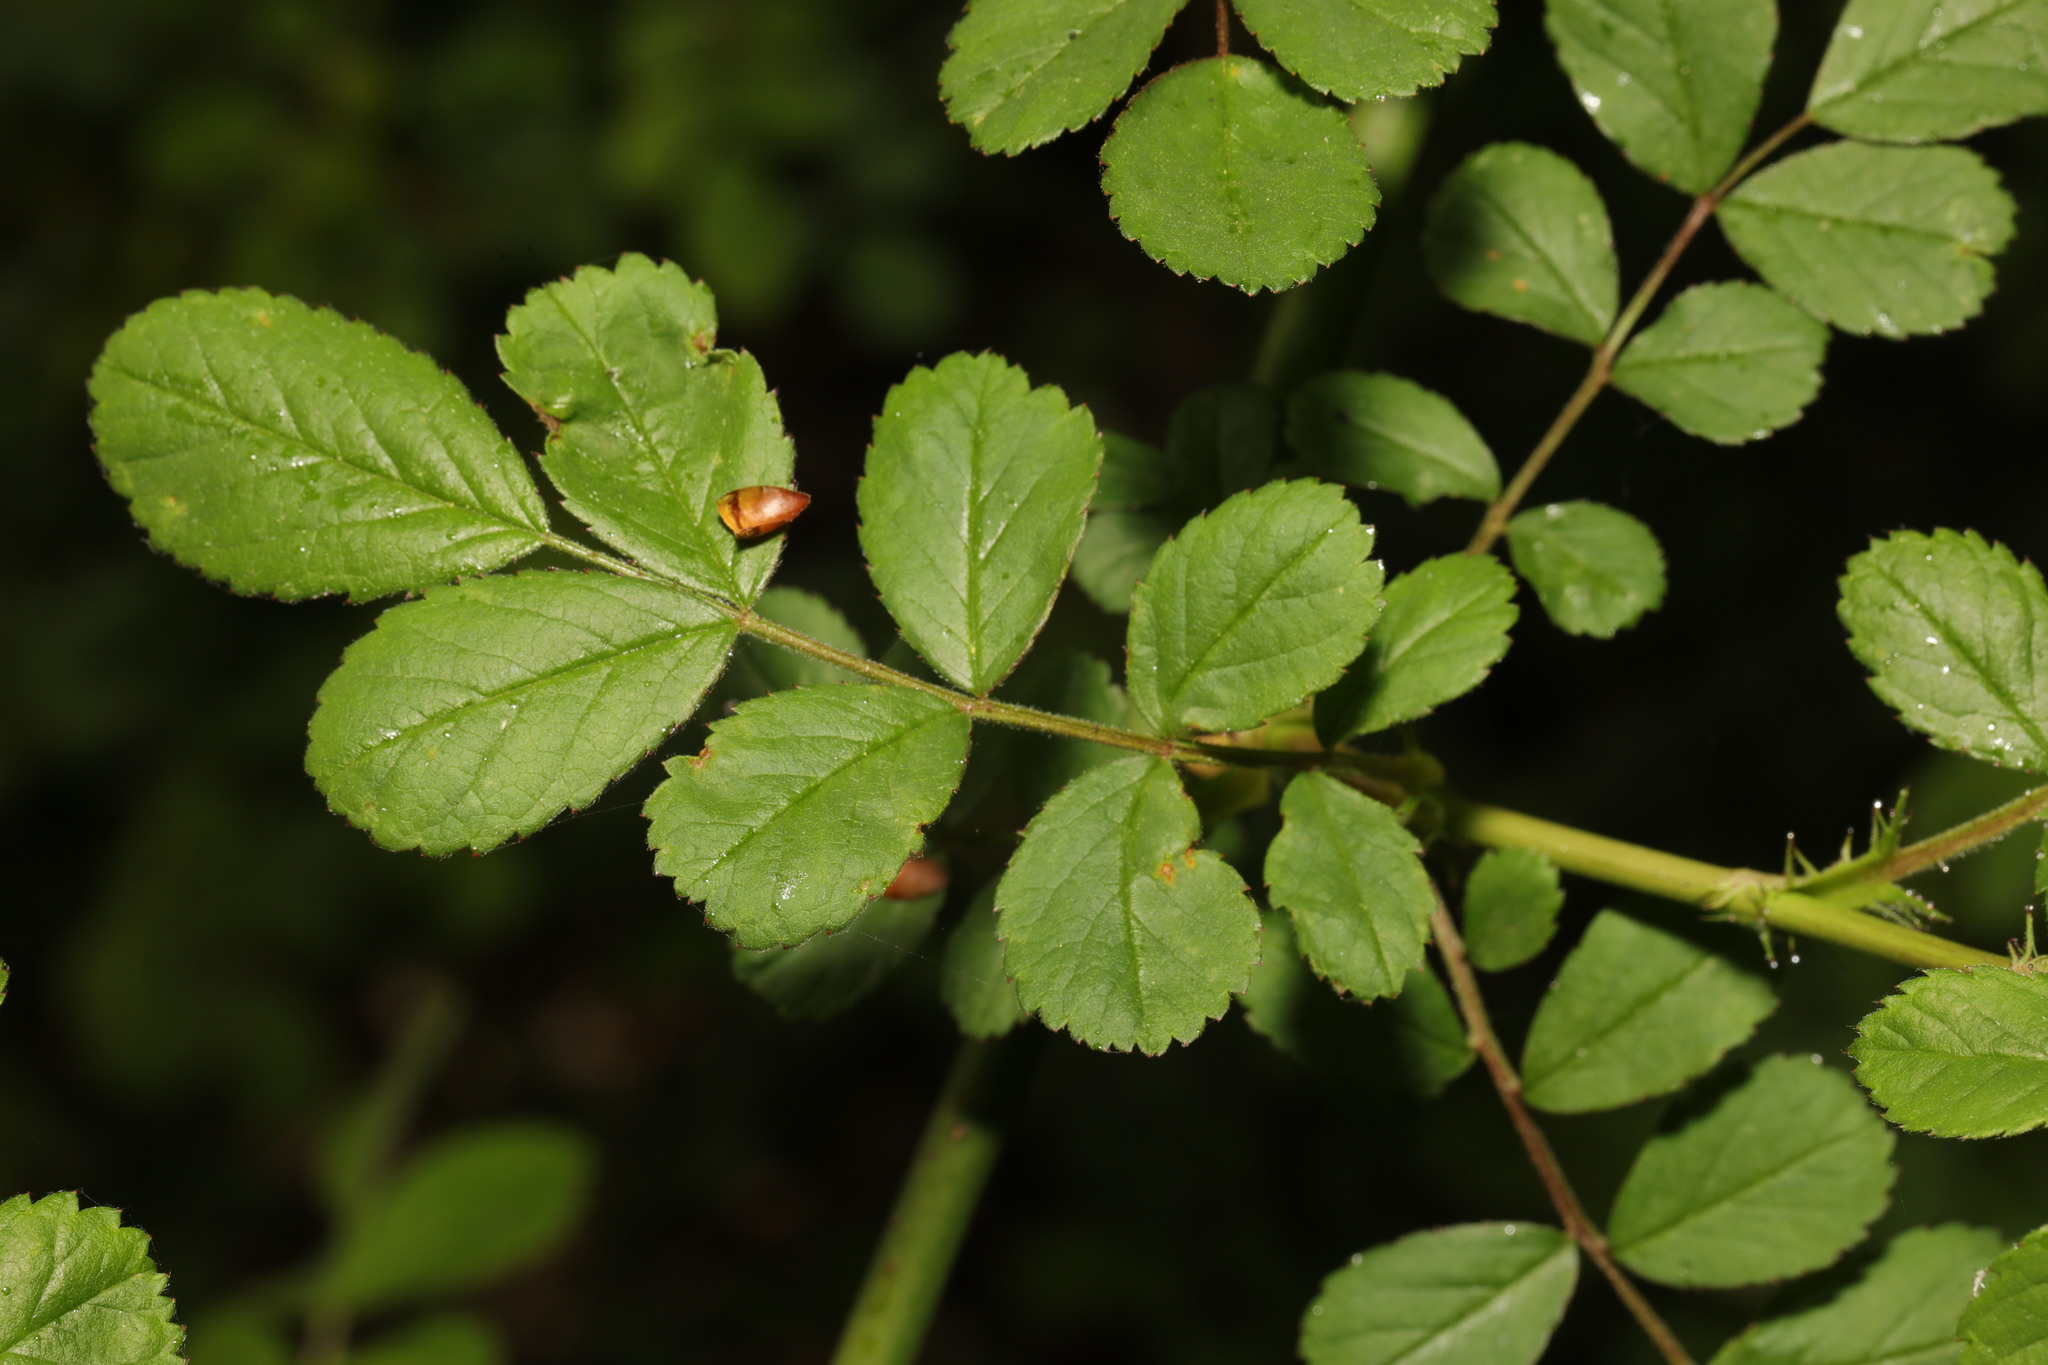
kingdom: Plantae
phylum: Tracheophyta
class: Magnoliopsida
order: Rosales
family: Rosaceae
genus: Rosa
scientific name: Rosa multiflora
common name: Multiflora rose
